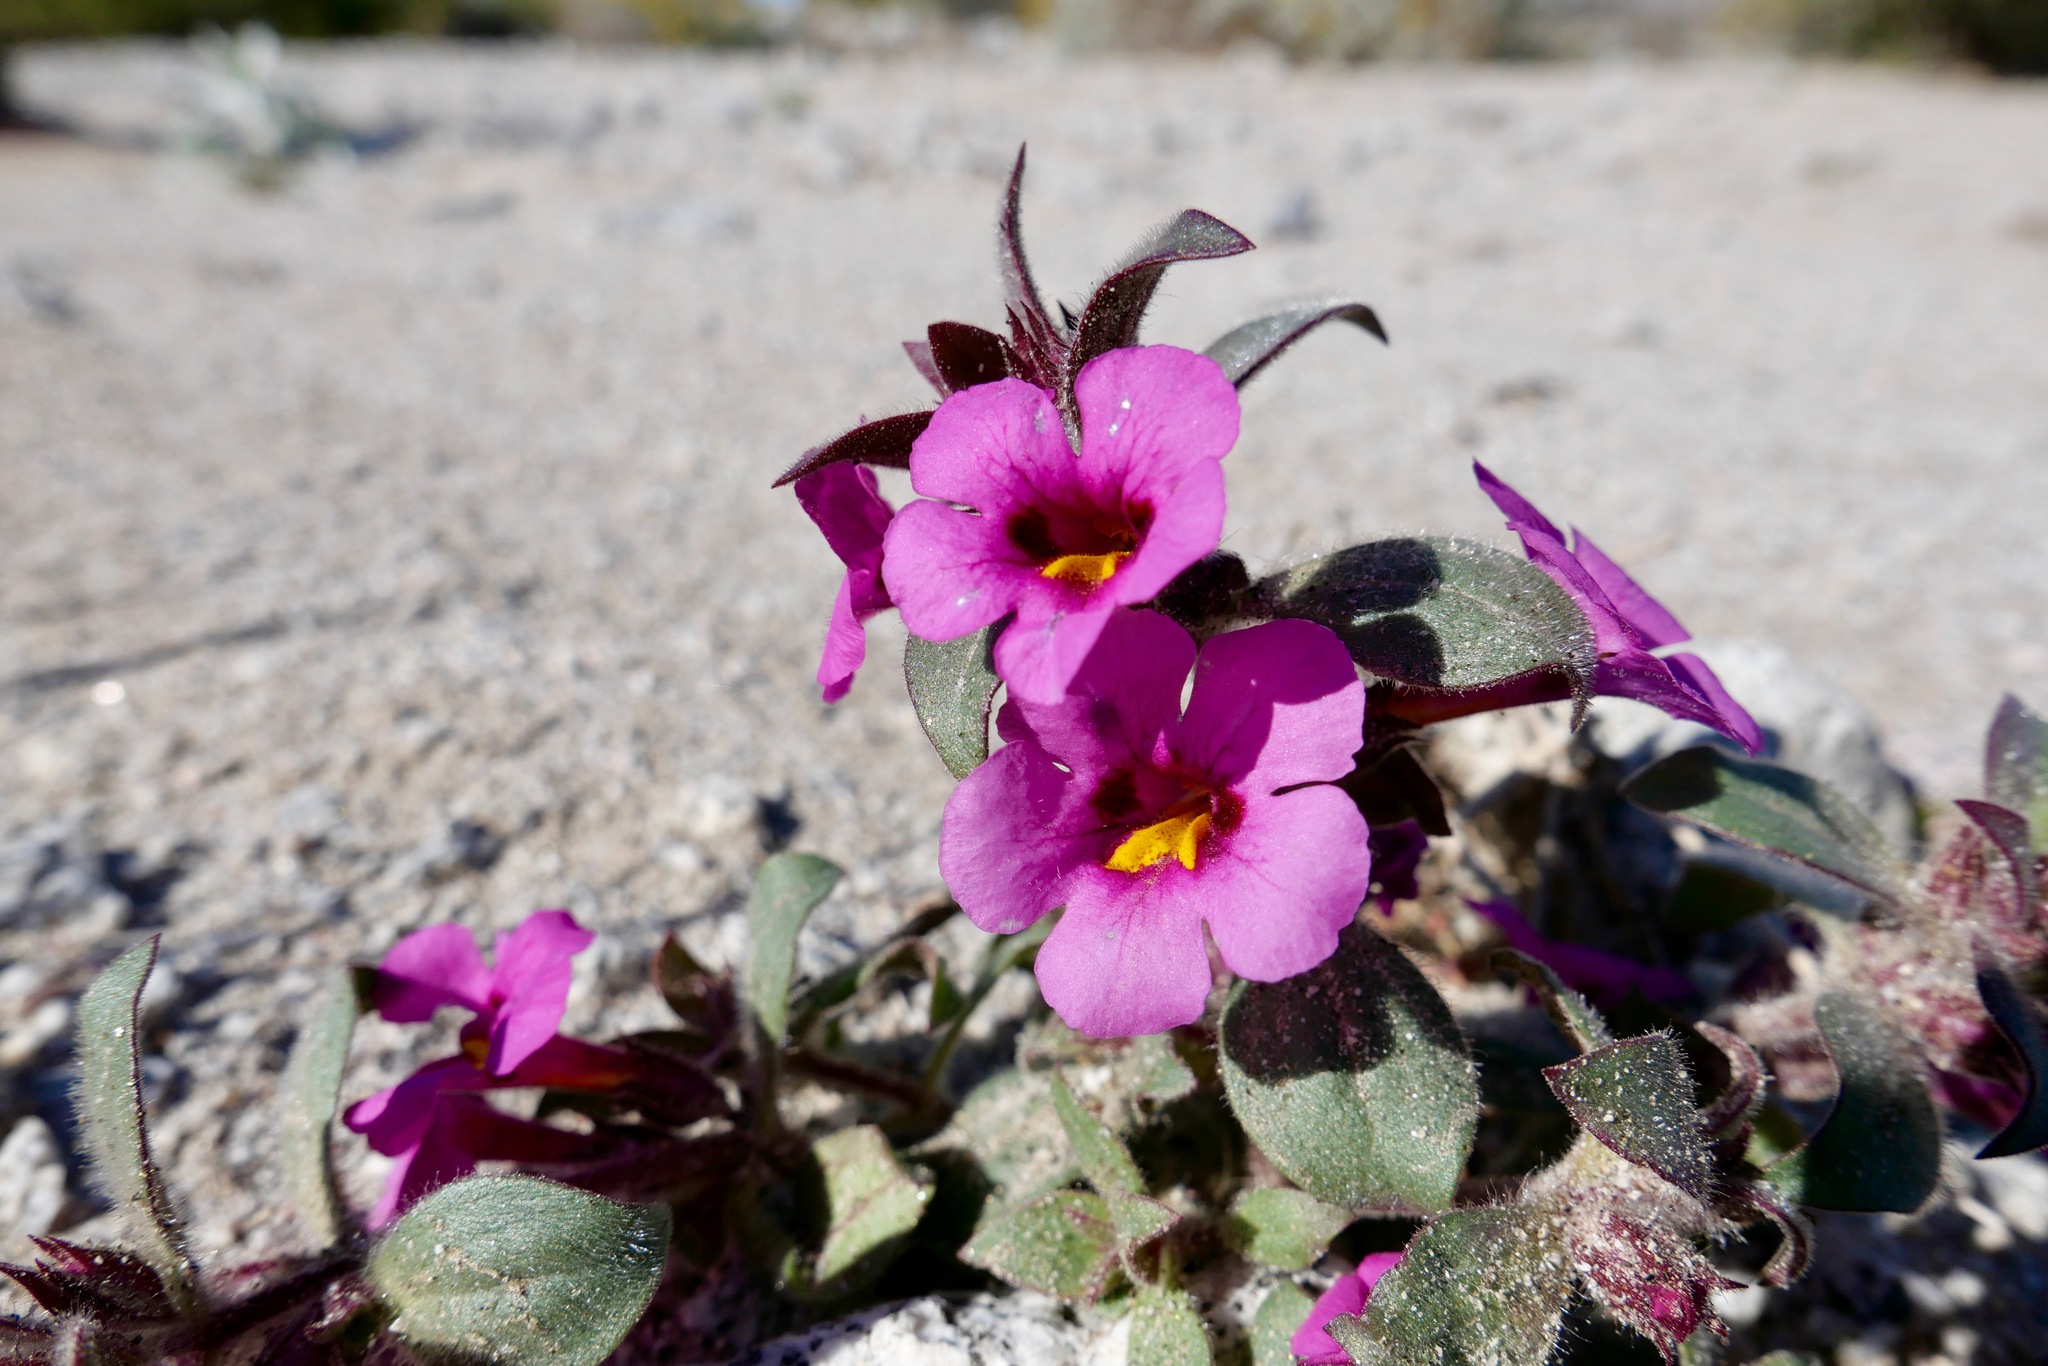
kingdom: Plantae
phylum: Tracheophyta
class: Magnoliopsida
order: Lamiales
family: Phrymaceae
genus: Diplacus
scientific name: Diplacus bigelovii
